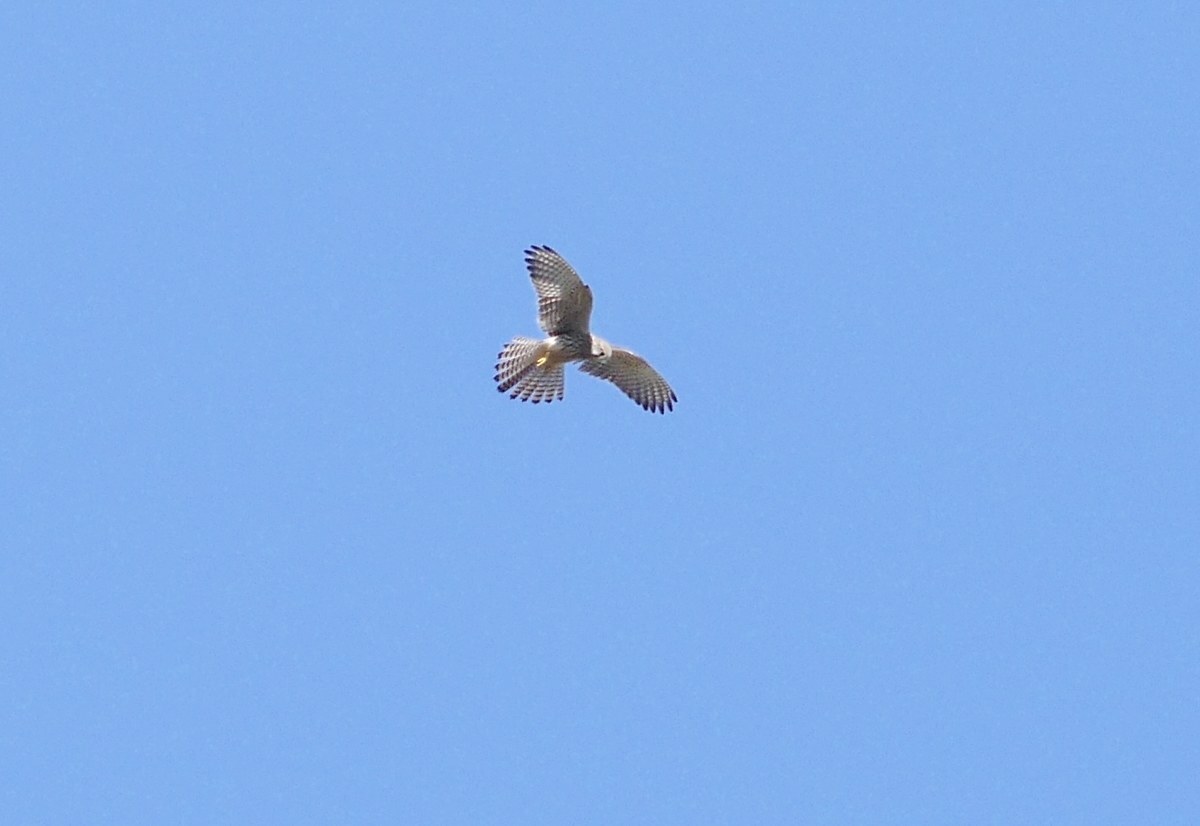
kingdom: Animalia
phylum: Chordata
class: Aves
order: Falconiformes
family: Falconidae
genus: Falco
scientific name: Falco tinnunculus
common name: Common kestrel
